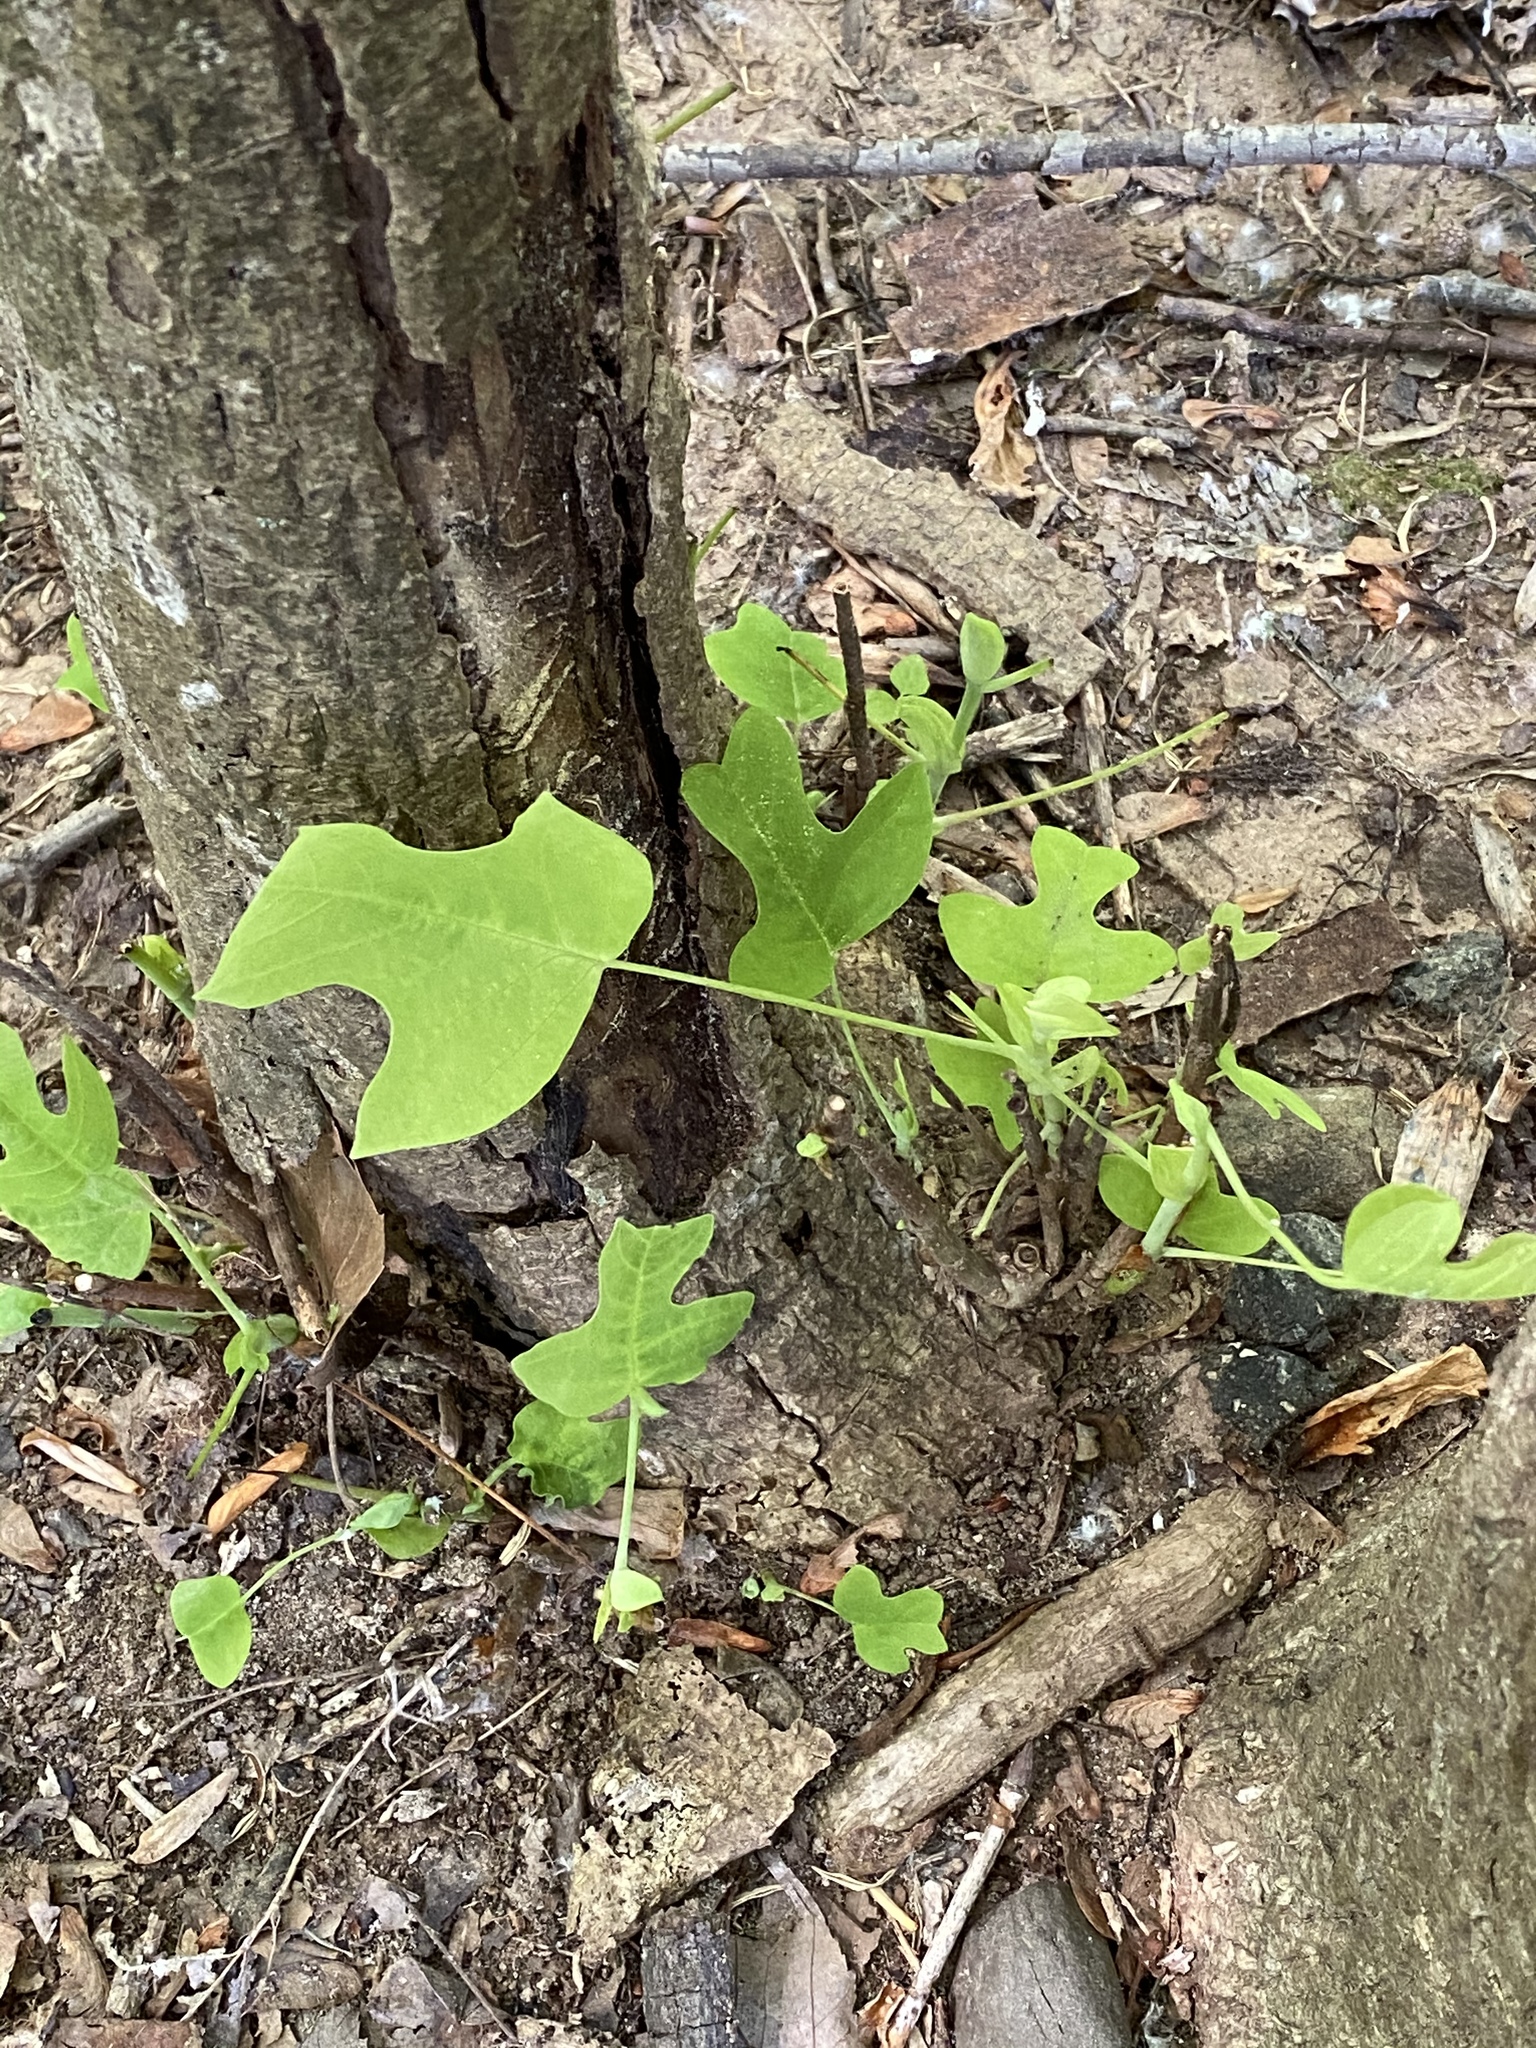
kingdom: Plantae
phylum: Tracheophyta
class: Magnoliopsida
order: Magnoliales
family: Magnoliaceae
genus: Liriodendron
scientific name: Liriodendron tulipifera
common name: Tulip tree
